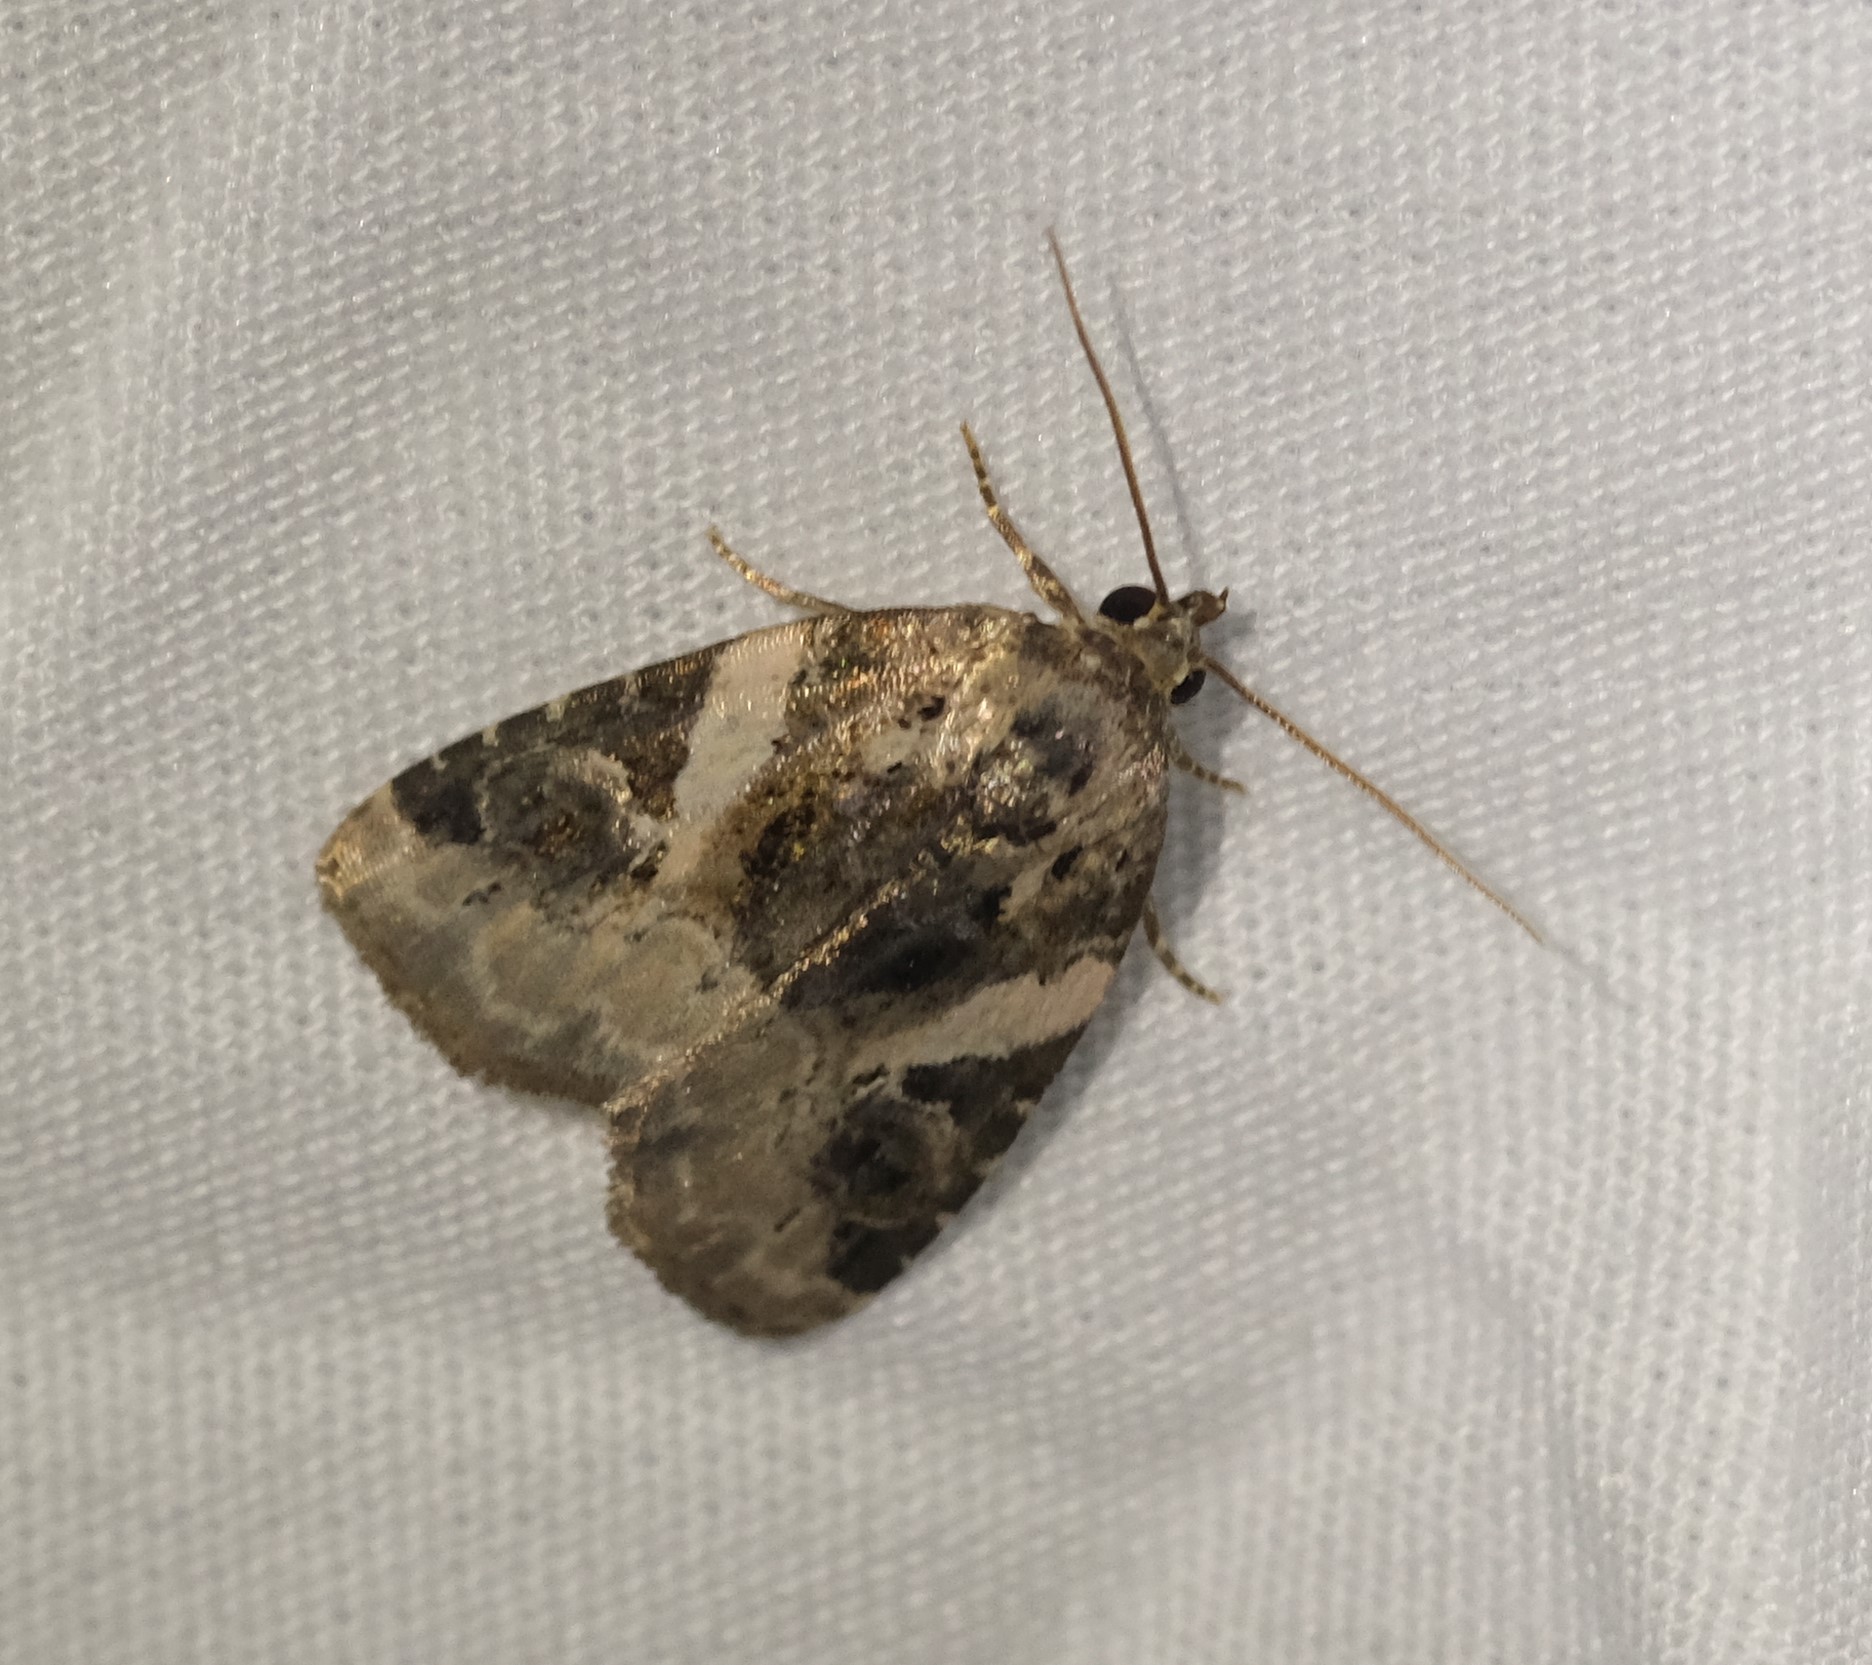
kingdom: Animalia
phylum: Arthropoda
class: Insecta
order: Lepidoptera
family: Noctuidae
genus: Pseudeustrotia
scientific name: Pseudeustrotia carneola
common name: Pink-barred lithacodia moth
